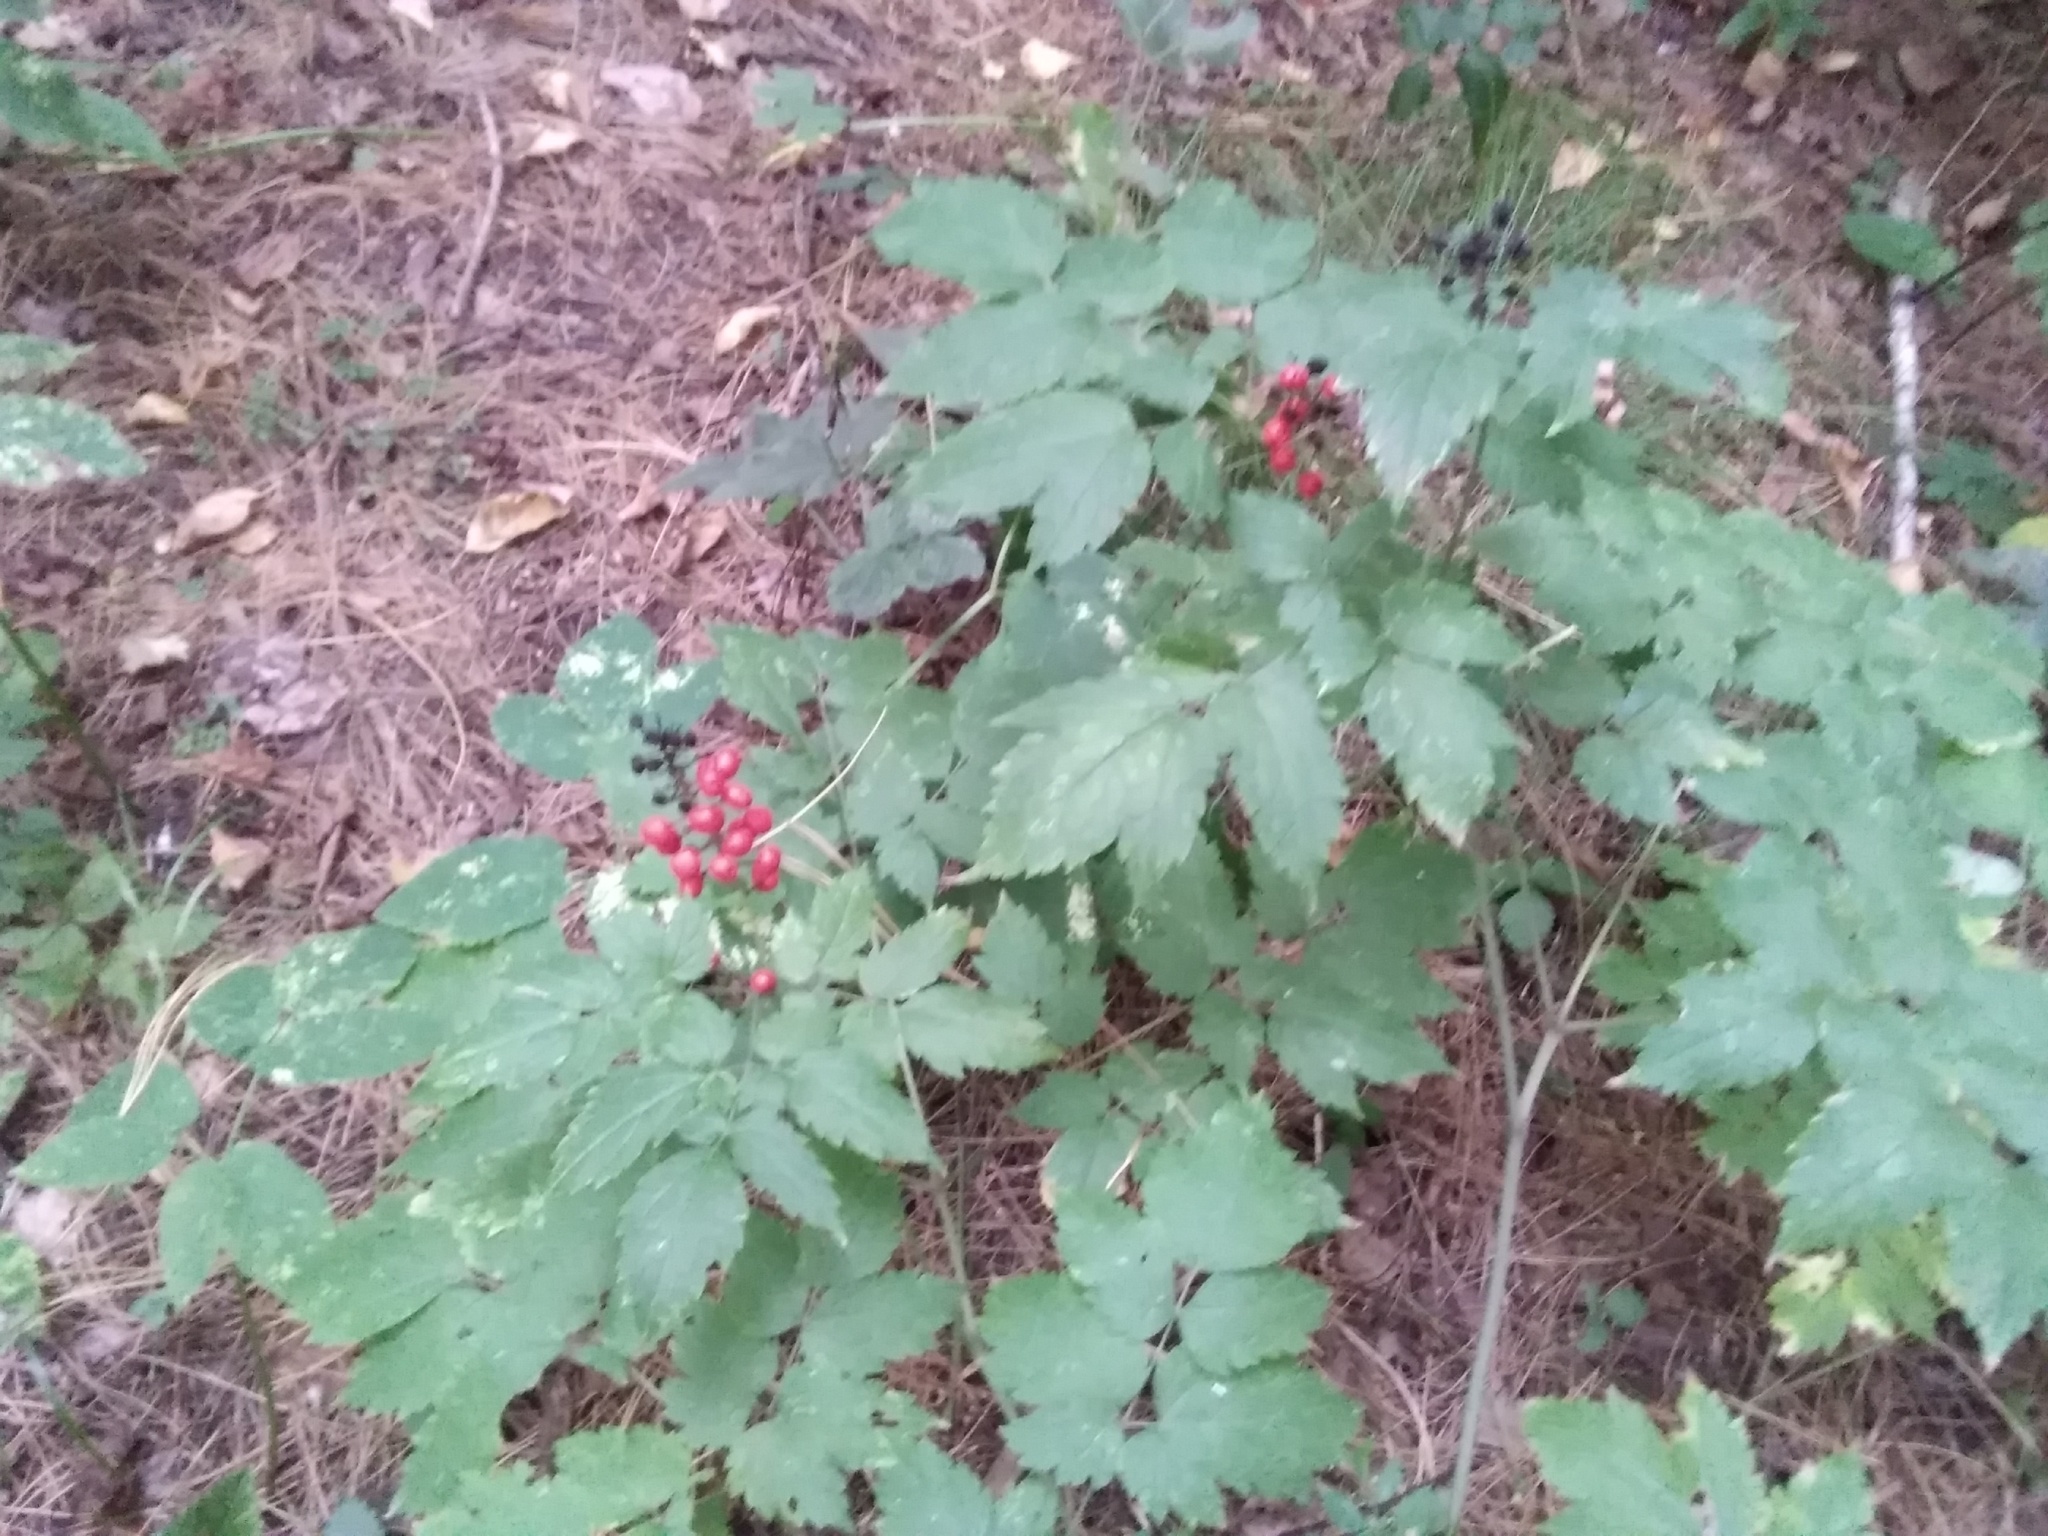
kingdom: Plantae
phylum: Tracheophyta
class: Magnoliopsida
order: Ranunculales
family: Ranunculaceae
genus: Actaea
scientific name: Actaea erythrocarpa
